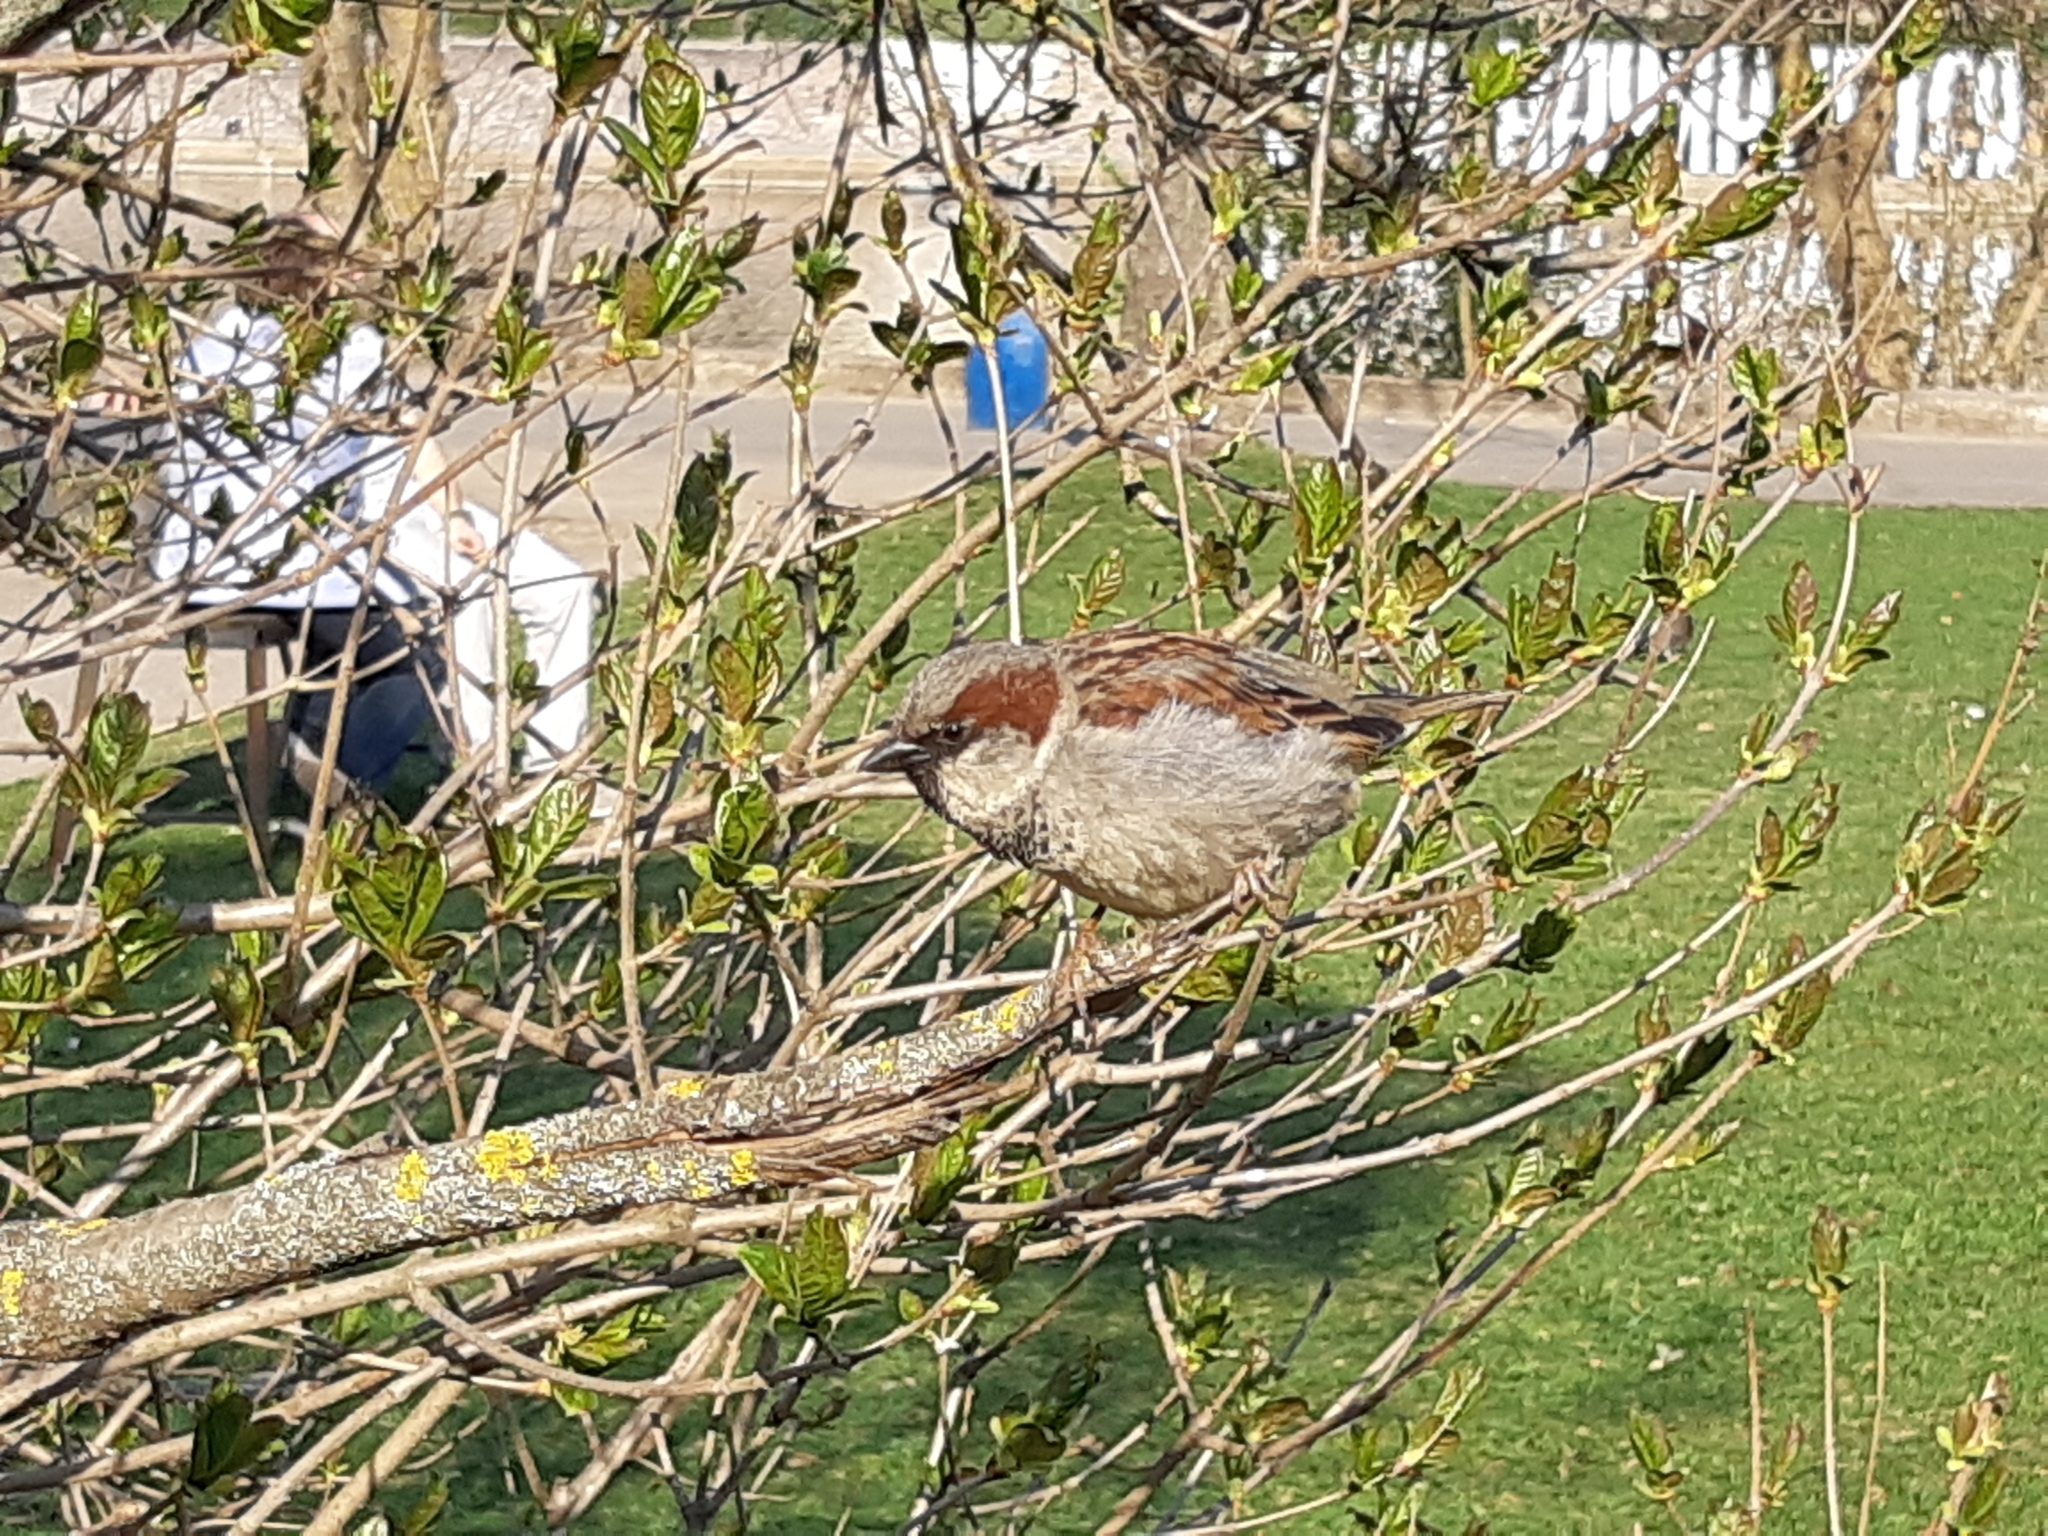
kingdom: Animalia
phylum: Chordata
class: Aves
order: Passeriformes
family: Passeridae
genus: Passer
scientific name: Passer domesticus
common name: House sparrow
